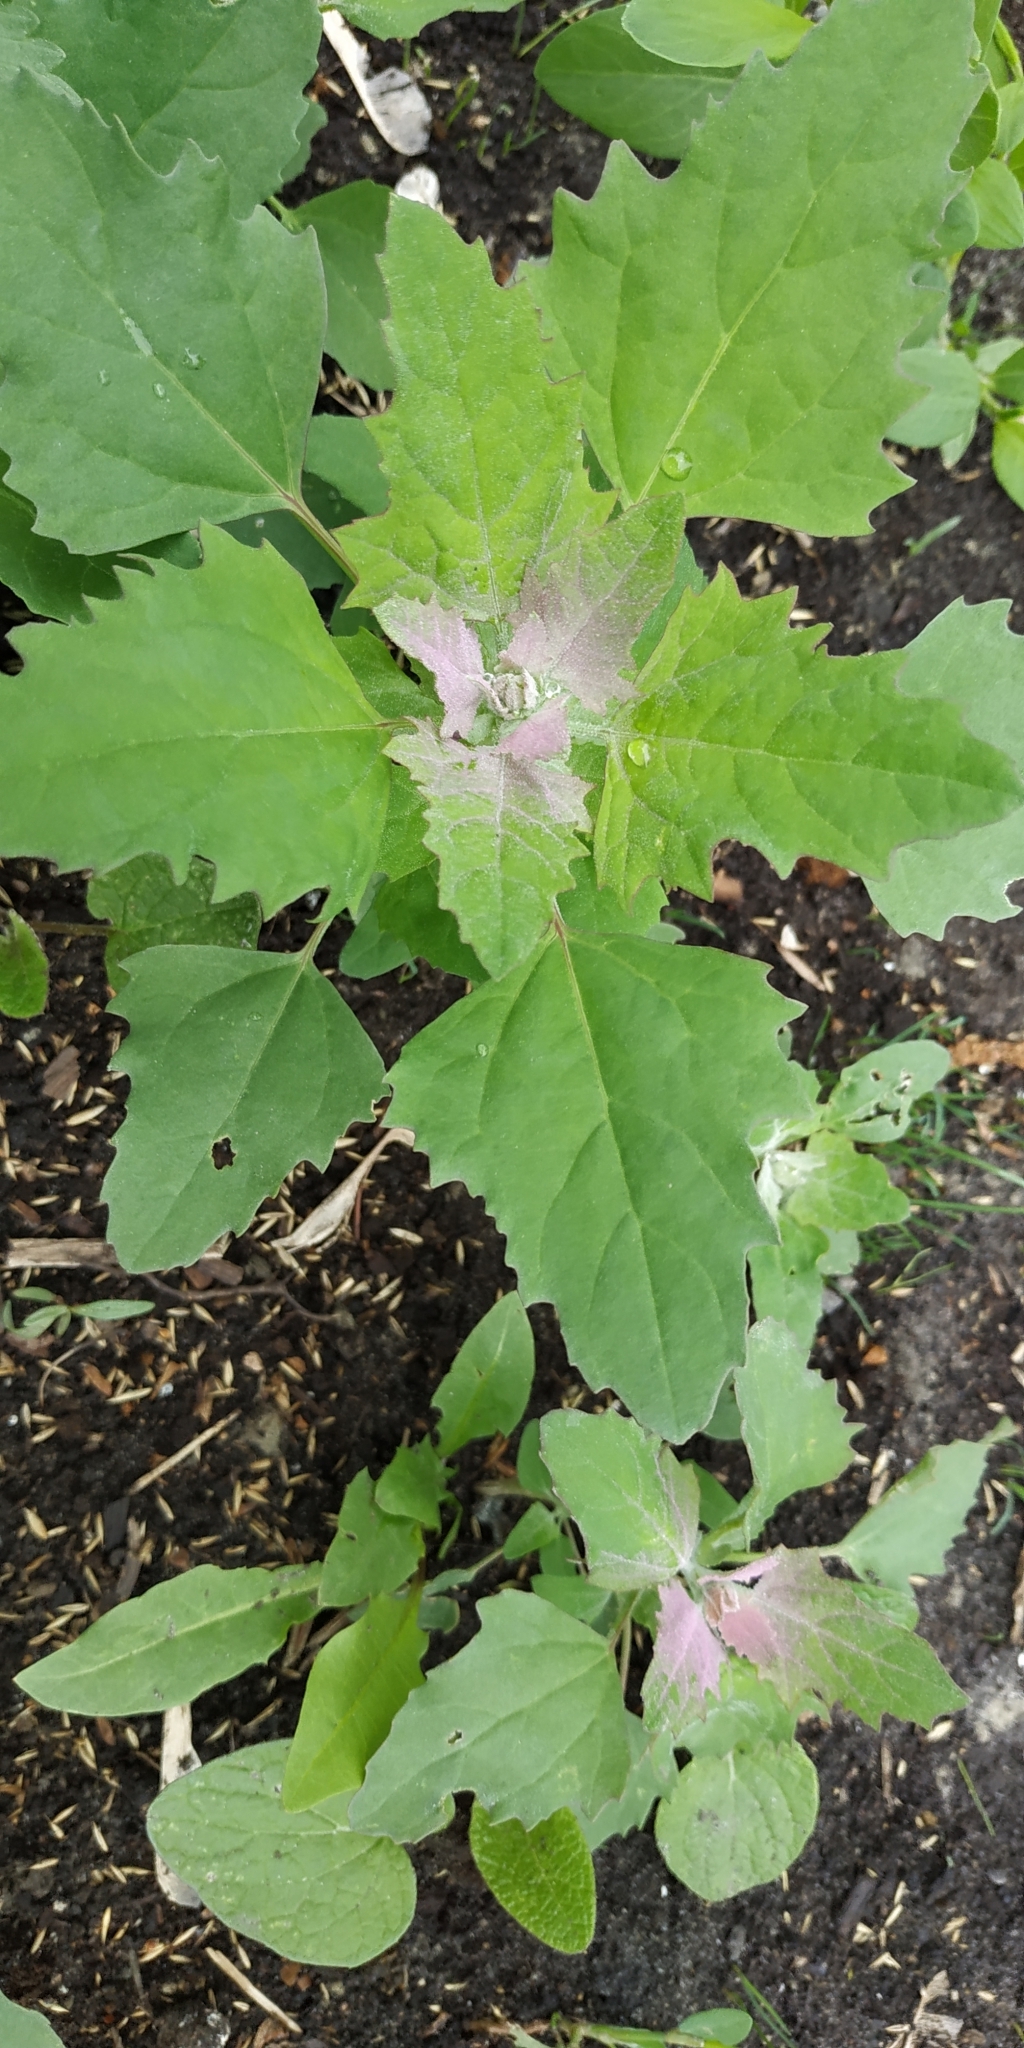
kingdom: Plantae
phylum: Tracheophyta
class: Magnoliopsida
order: Caryophyllales
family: Amaranthaceae
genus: Chenopodium
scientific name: Chenopodium album
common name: Fat-hen
